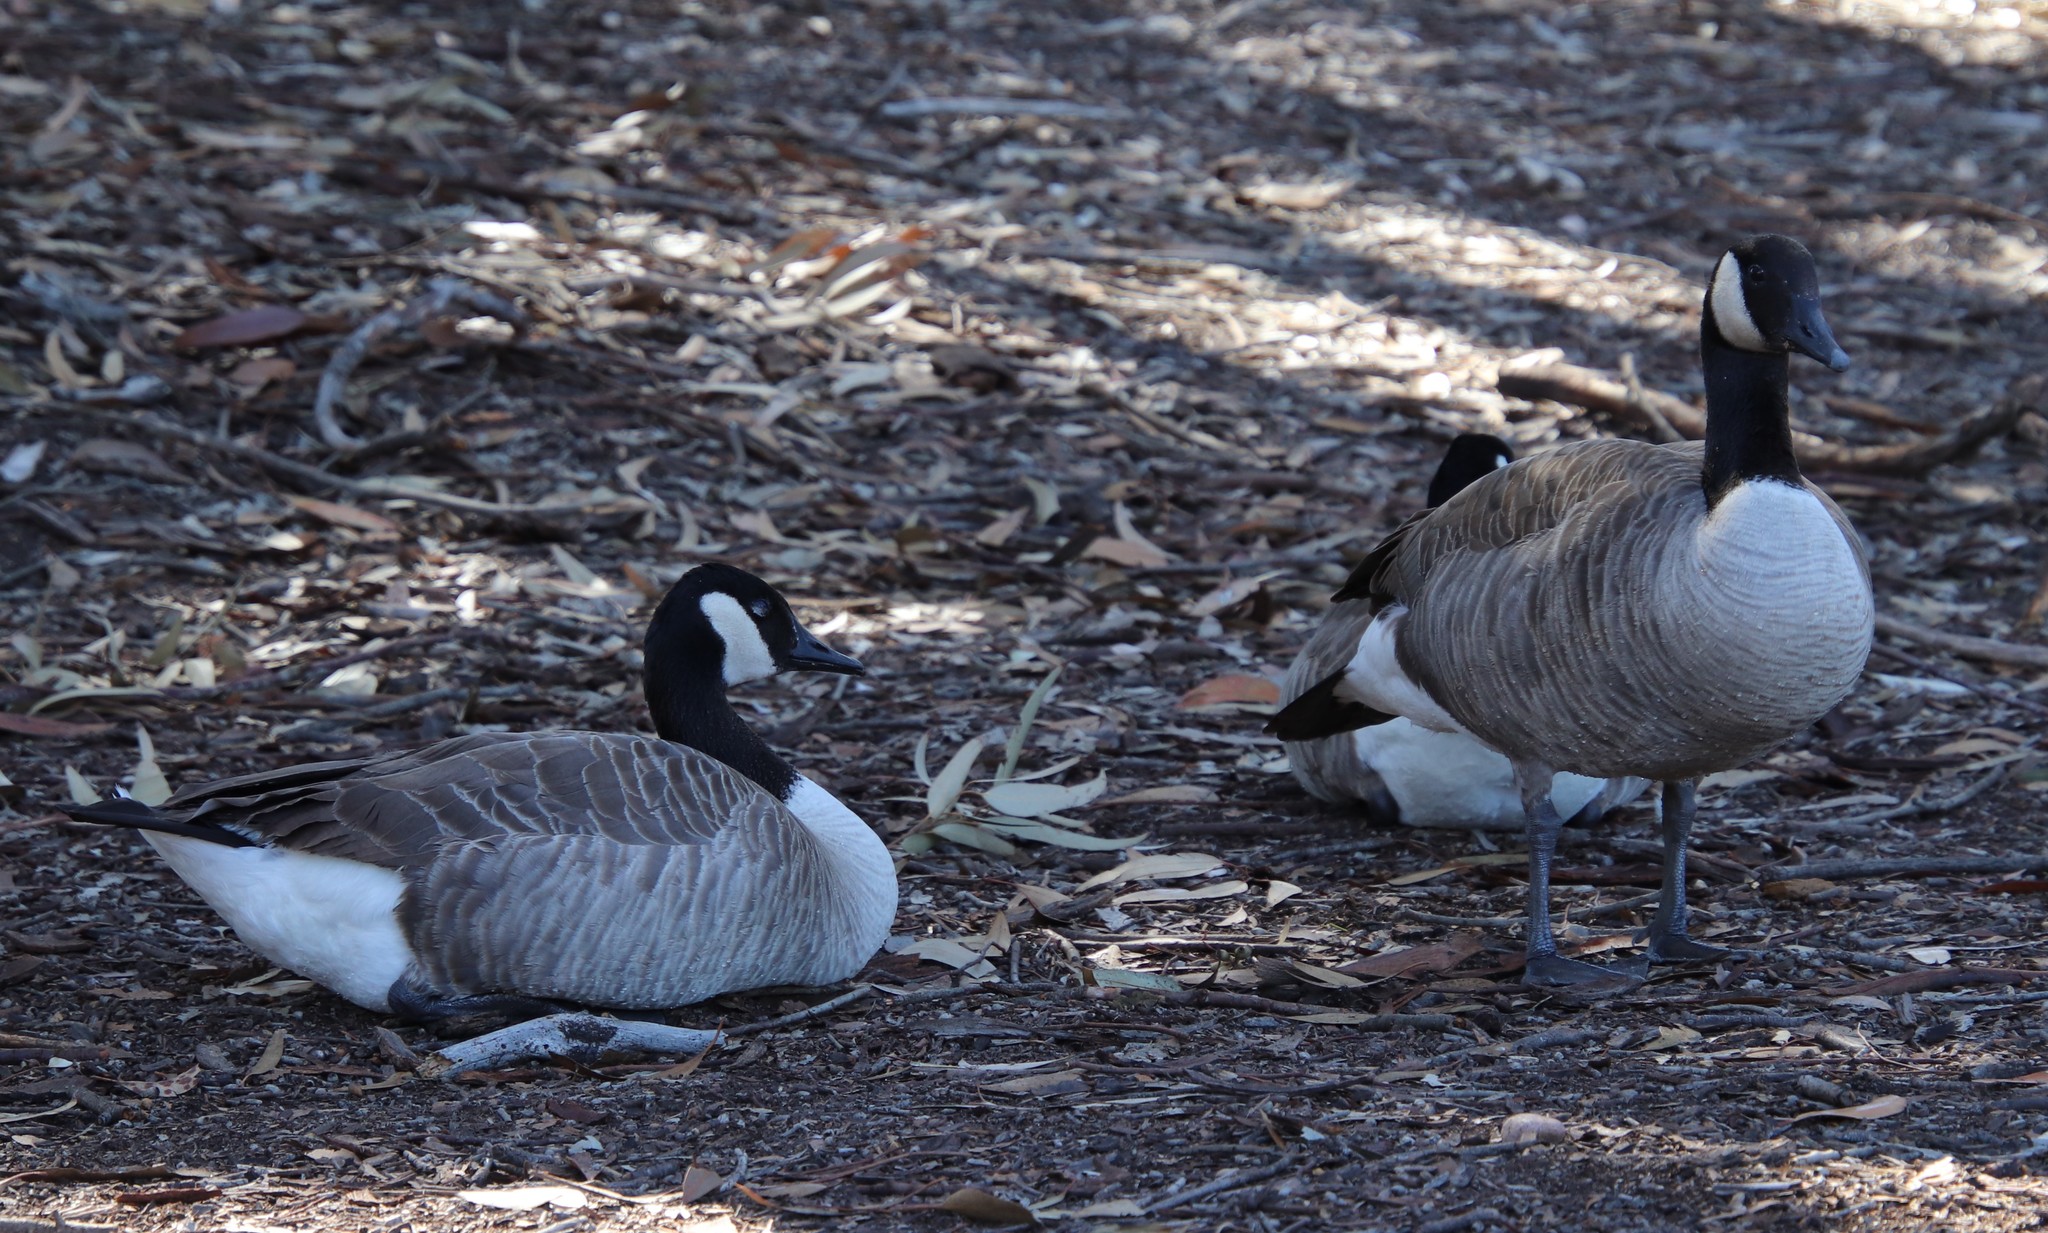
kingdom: Animalia
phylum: Chordata
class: Aves
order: Anseriformes
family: Anatidae
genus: Branta
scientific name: Branta canadensis
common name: Canada goose
